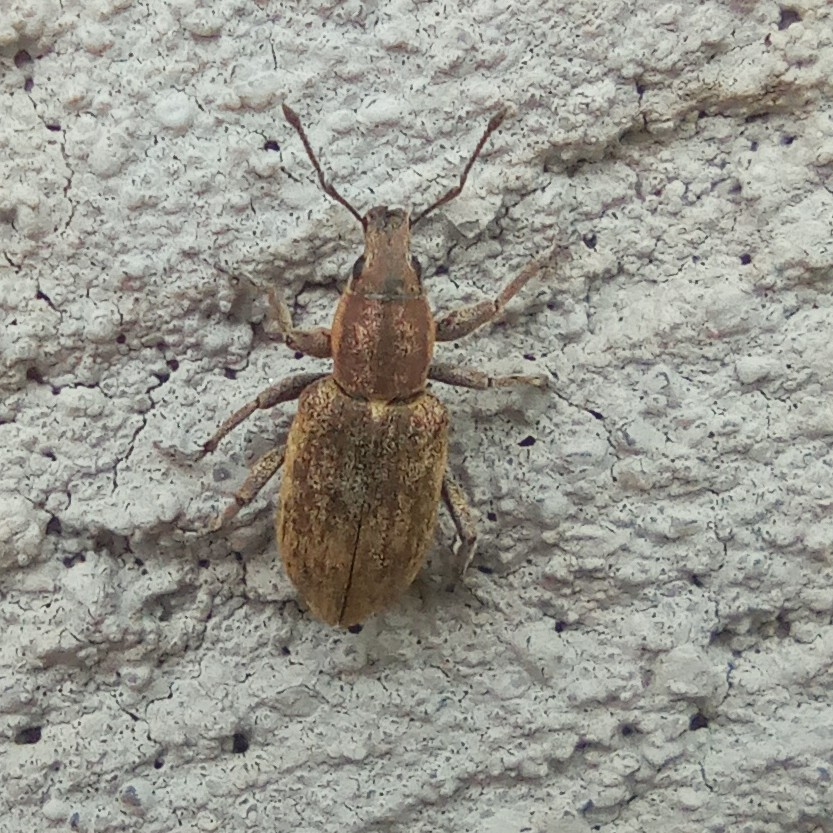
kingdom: Animalia
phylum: Arthropoda
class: Insecta
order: Coleoptera
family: Curculionidae
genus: Tanymecus
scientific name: Tanymecus palliatus
